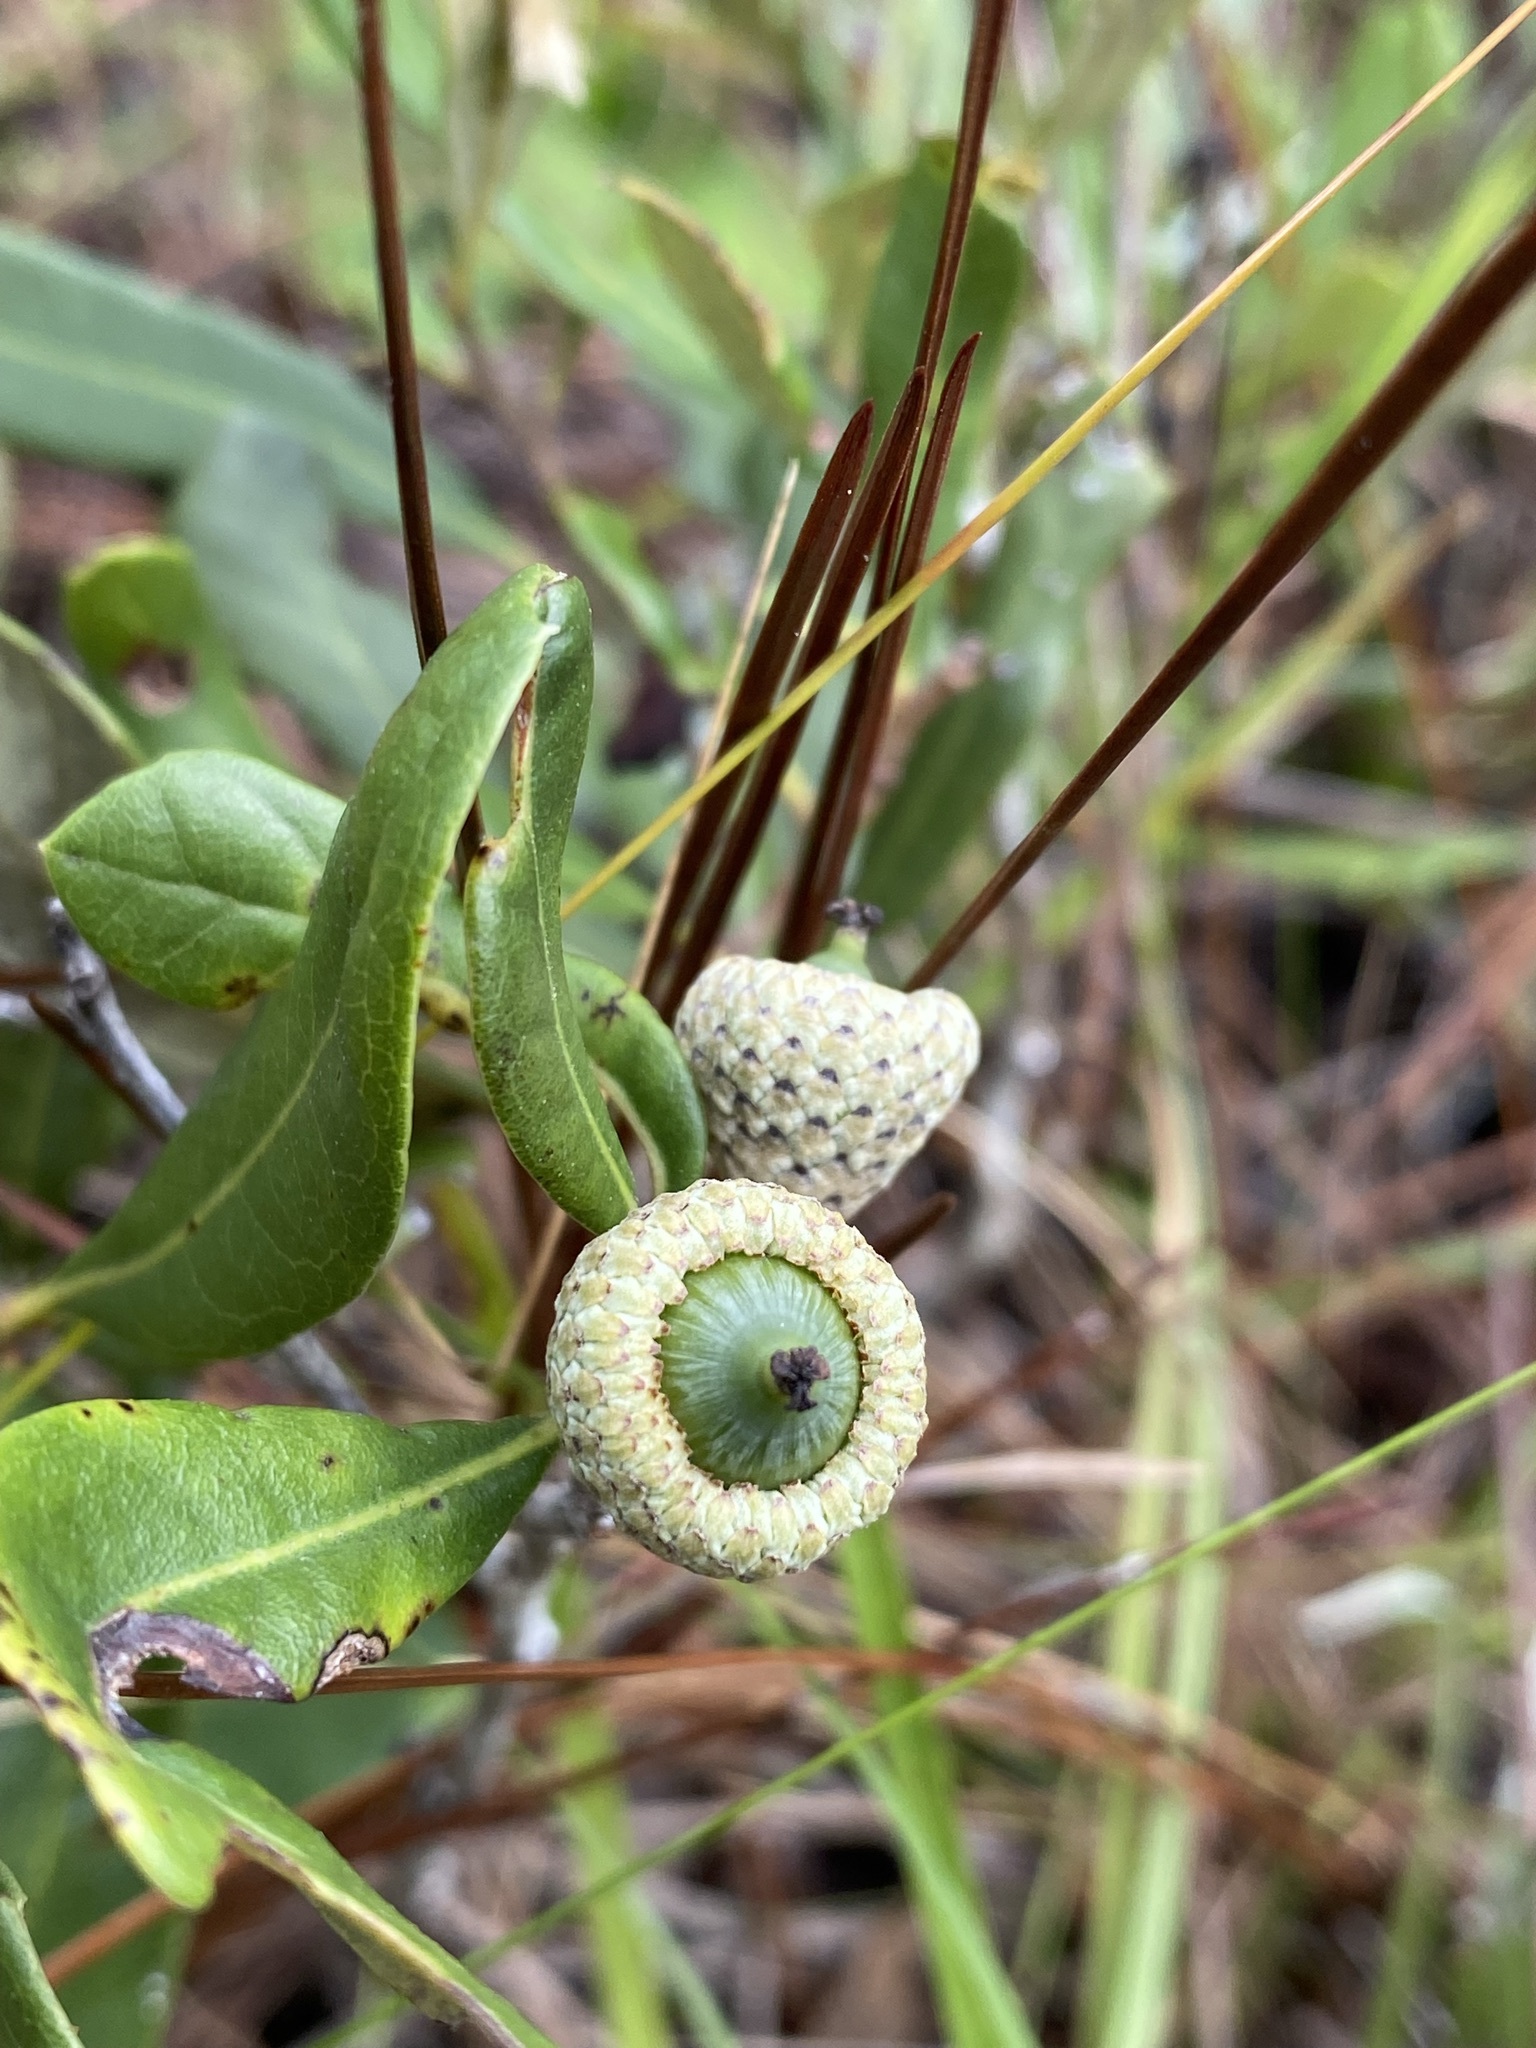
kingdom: Plantae
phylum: Tracheophyta
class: Magnoliopsida
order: Fagales
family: Fagaceae
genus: Quercus
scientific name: Quercus minima
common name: Dwarf live oak
